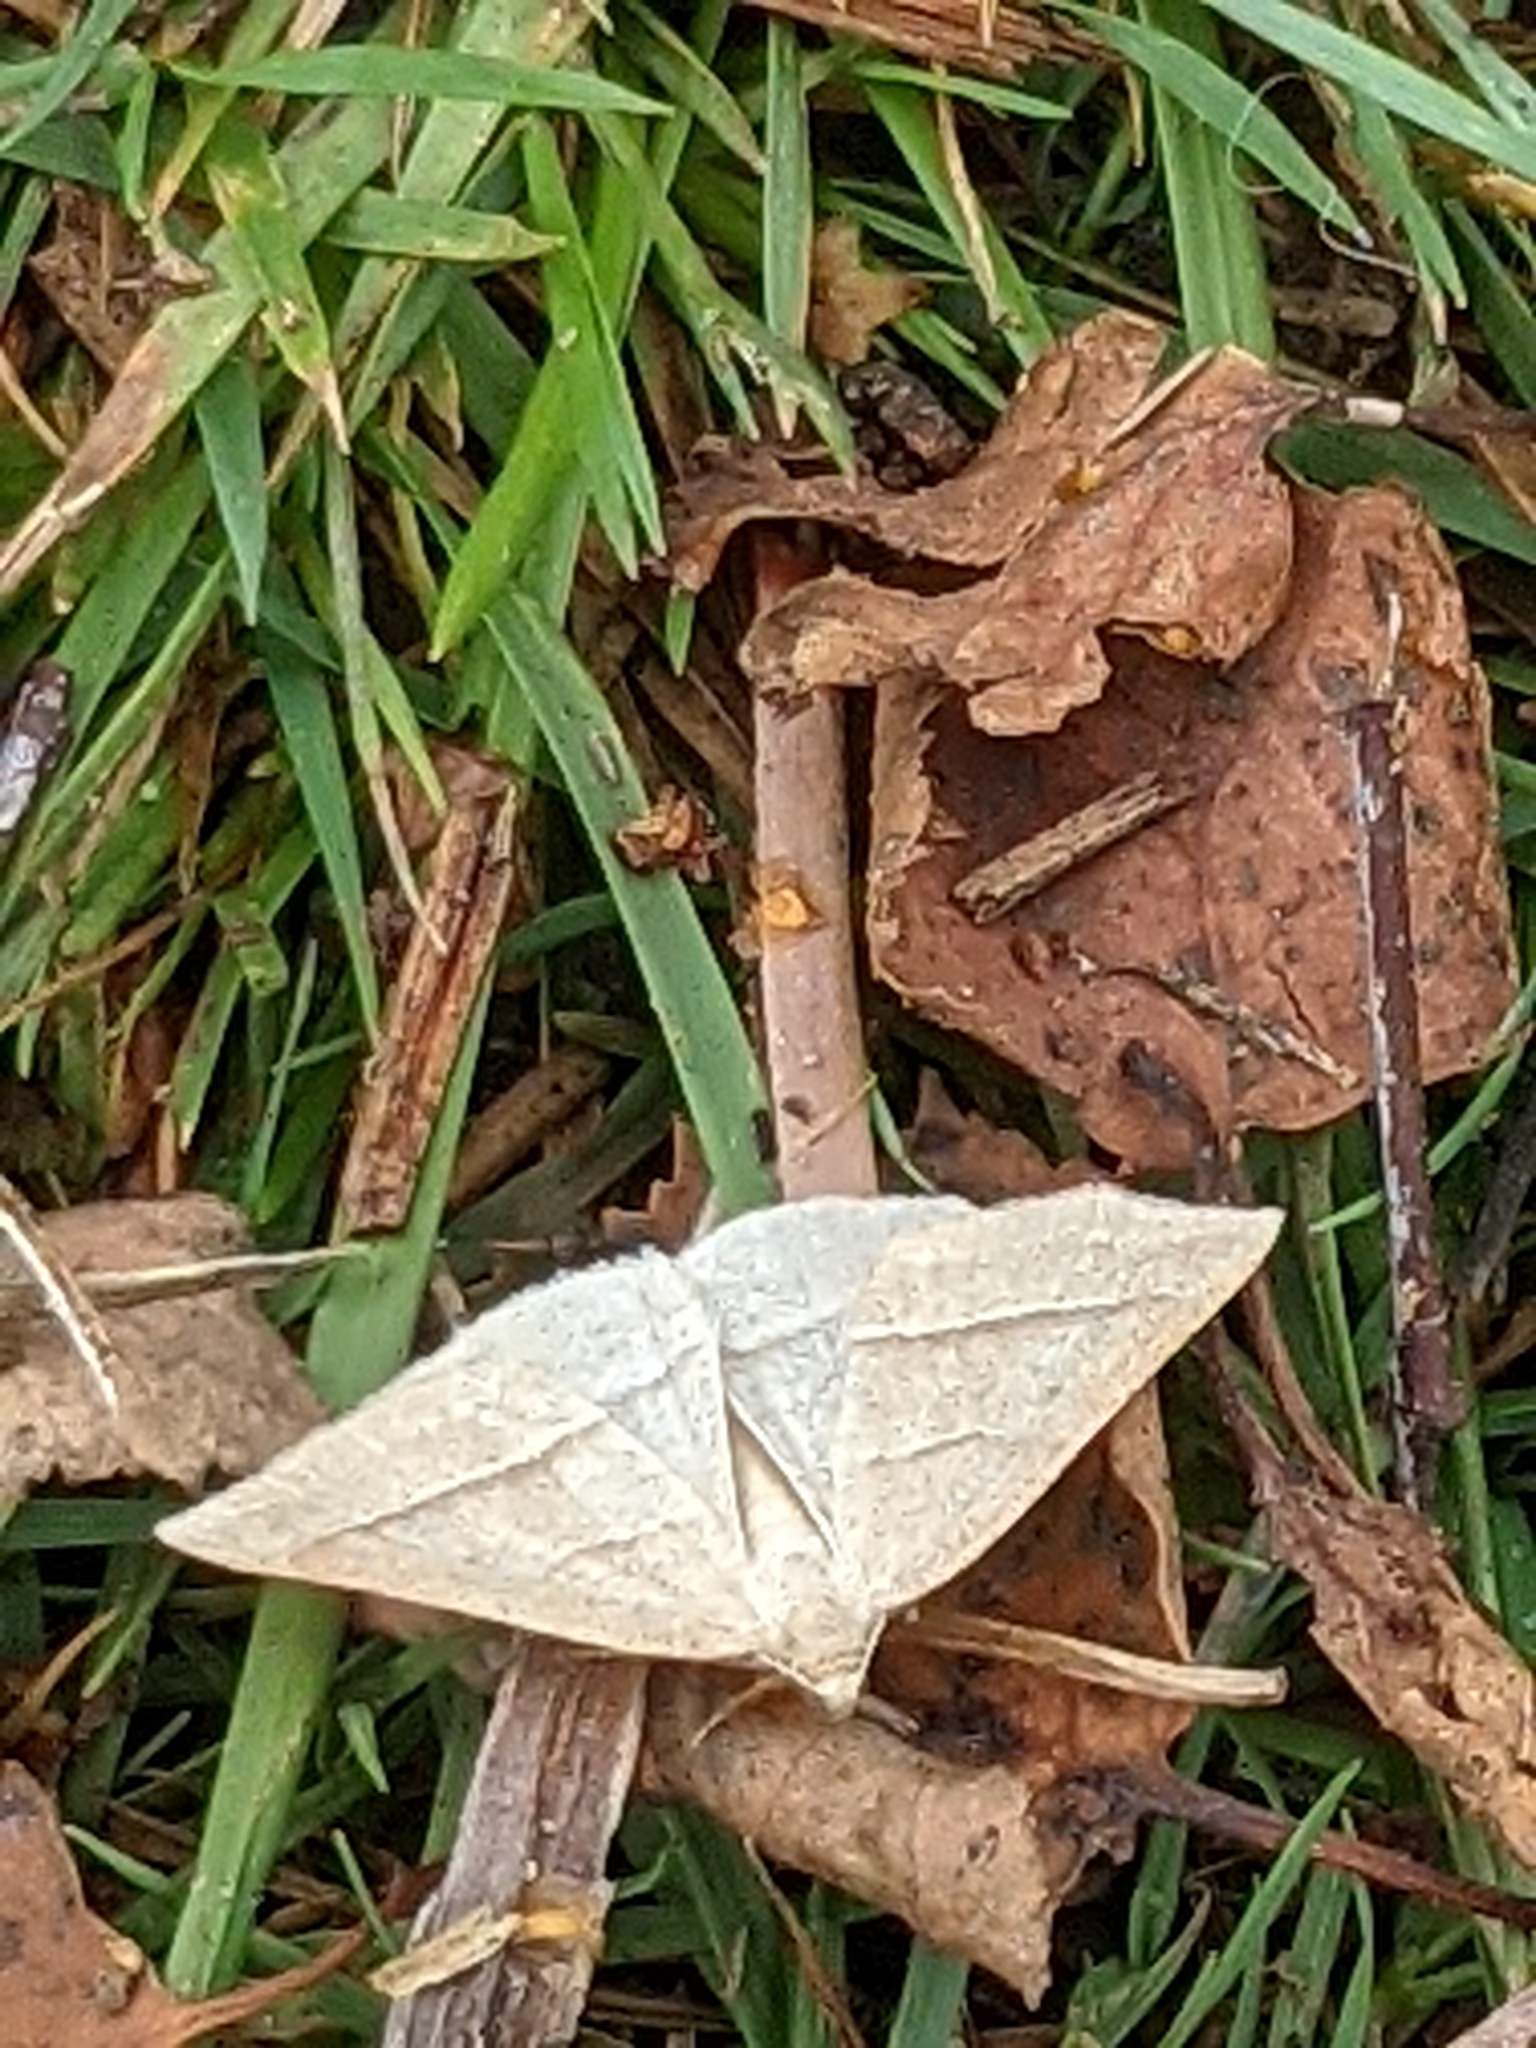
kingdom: Animalia
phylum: Arthropoda
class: Insecta
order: Lepidoptera
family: Pterophoridae
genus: Pterophorus
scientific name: Pterophorus Petrophora chlorosata
